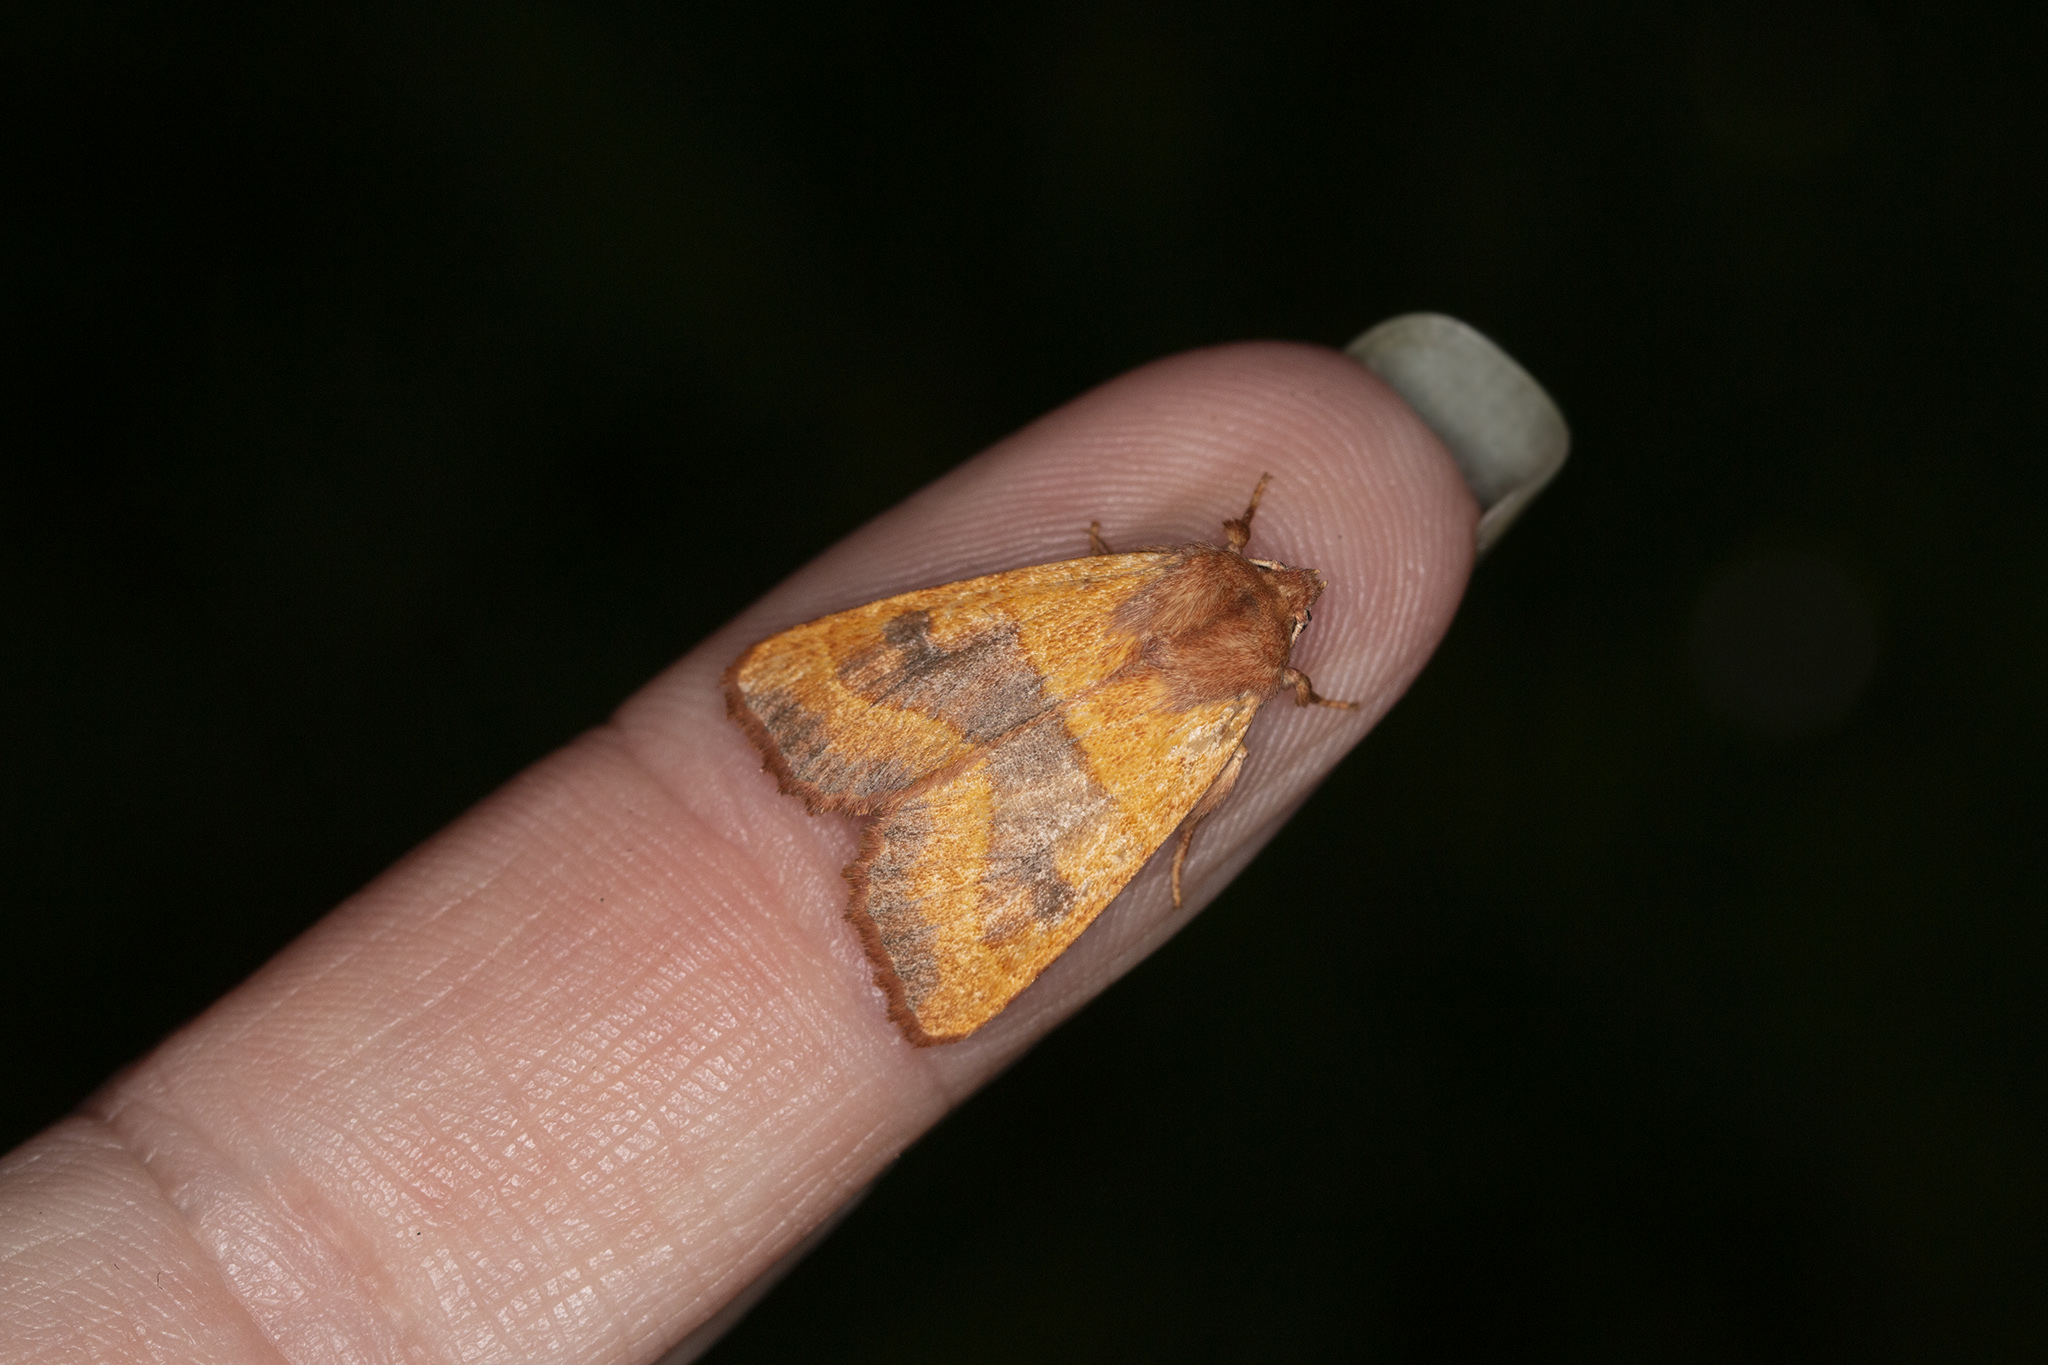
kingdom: Animalia
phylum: Arthropoda
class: Insecta
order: Lepidoptera
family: Noctuidae
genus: Atethmia
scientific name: Atethmia centrago
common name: Centre-barred sallow
